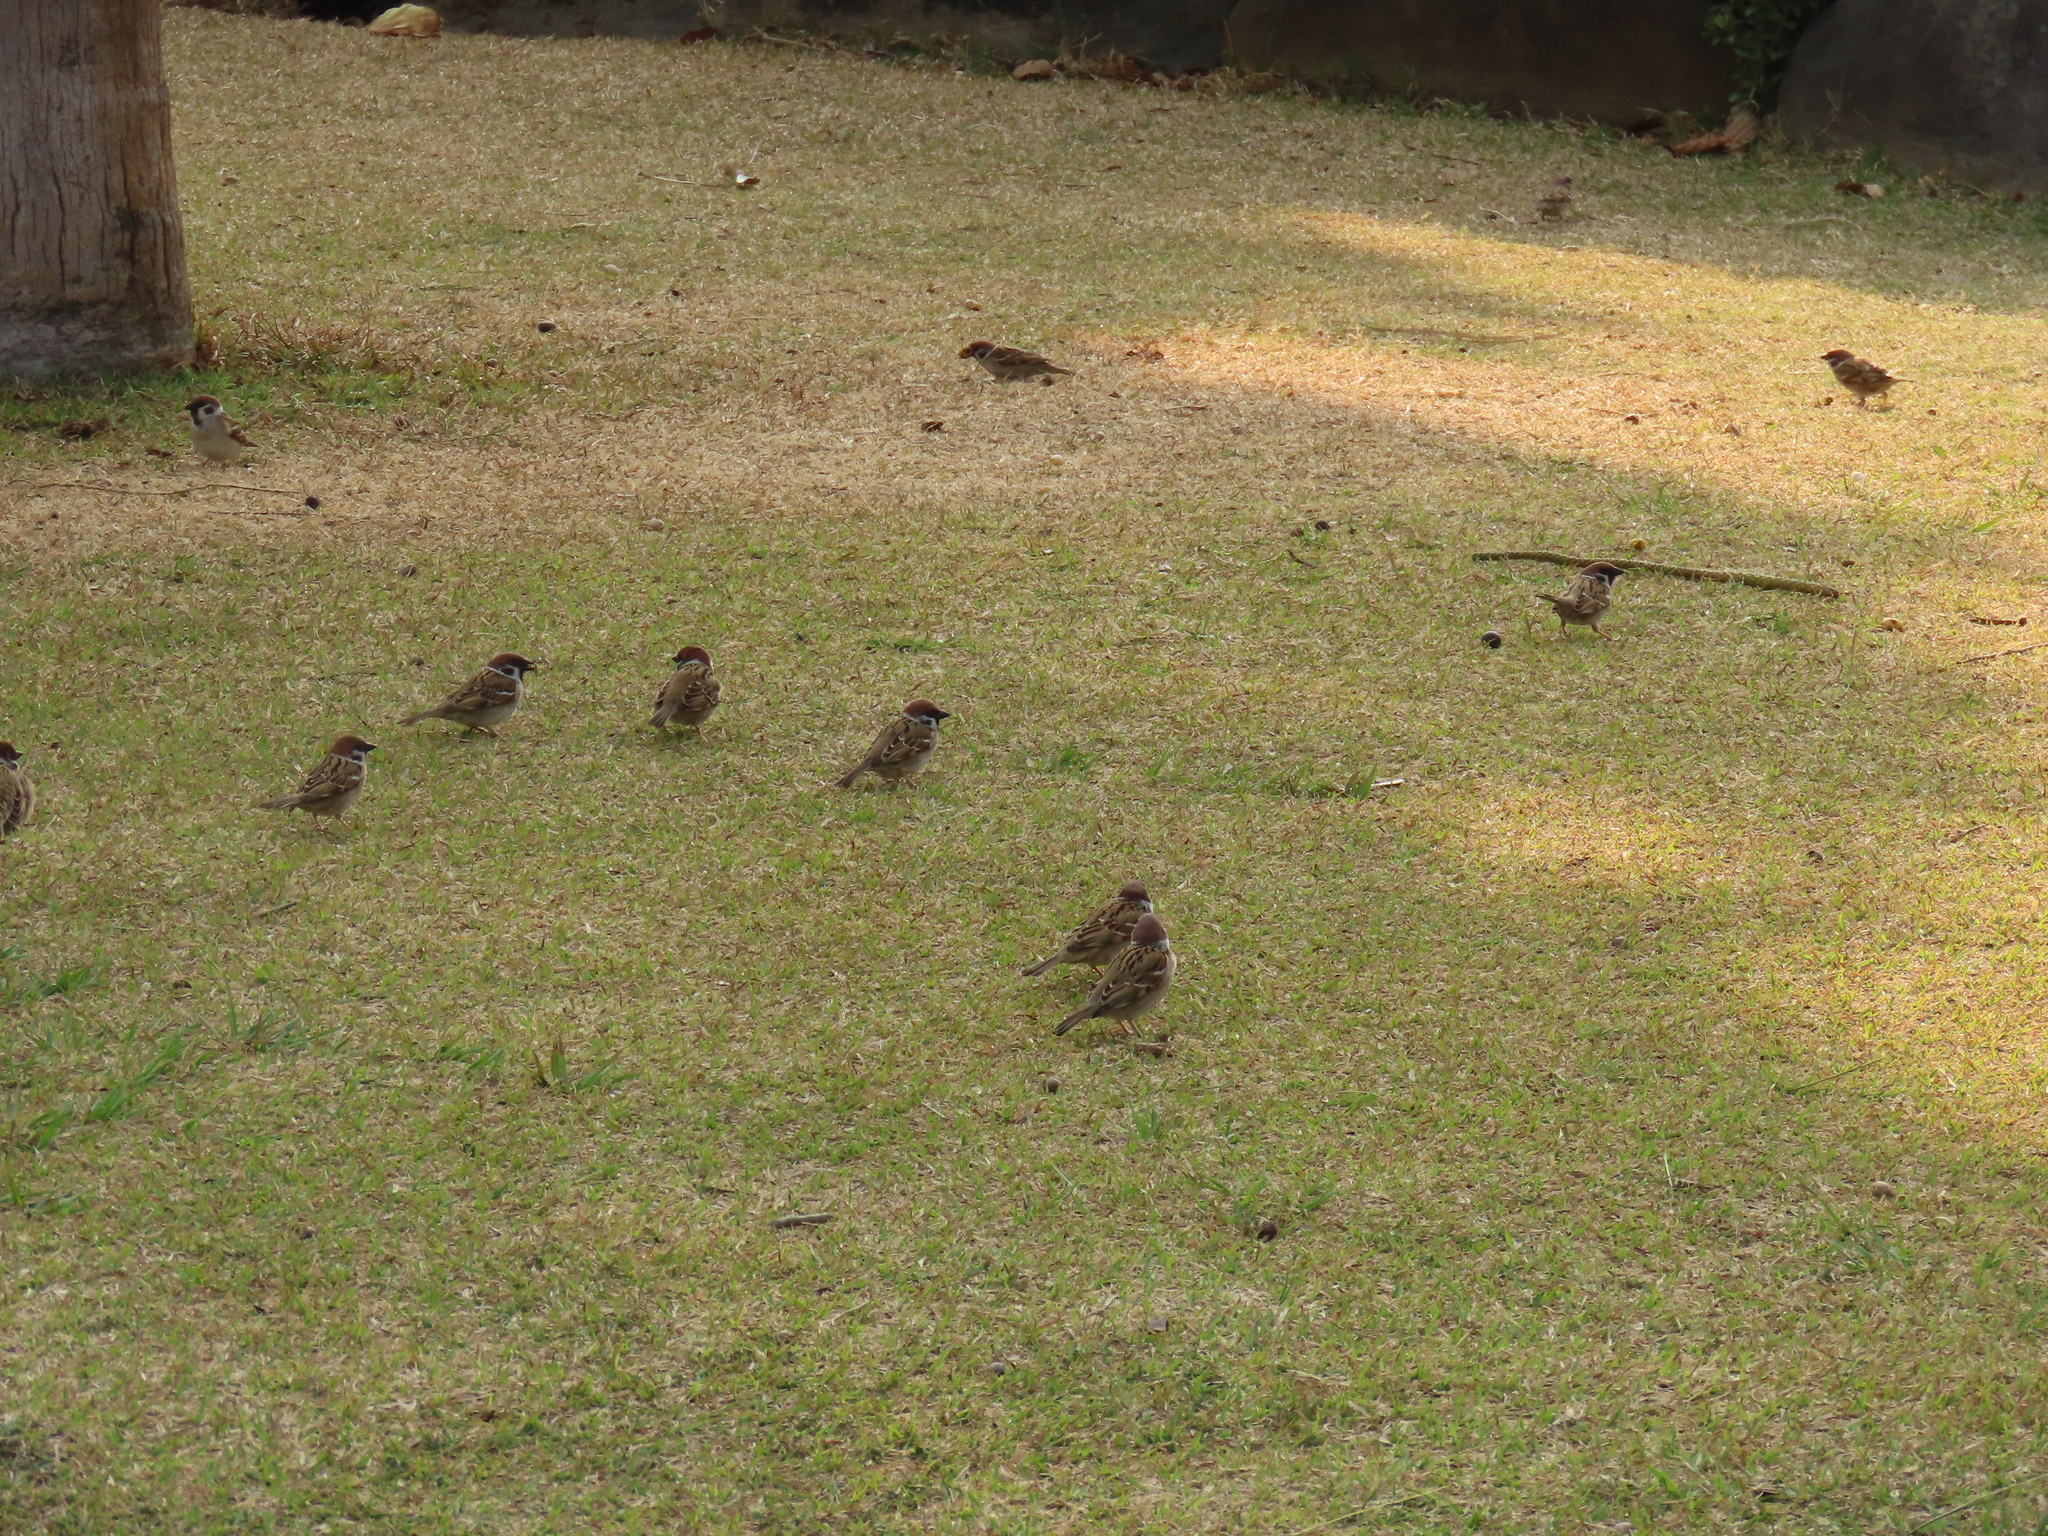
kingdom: Animalia
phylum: Chordata
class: Aves
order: Passeriformes
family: Passeridae
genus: Passer
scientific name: Passer montanus
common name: Eurasian tree sparrow
